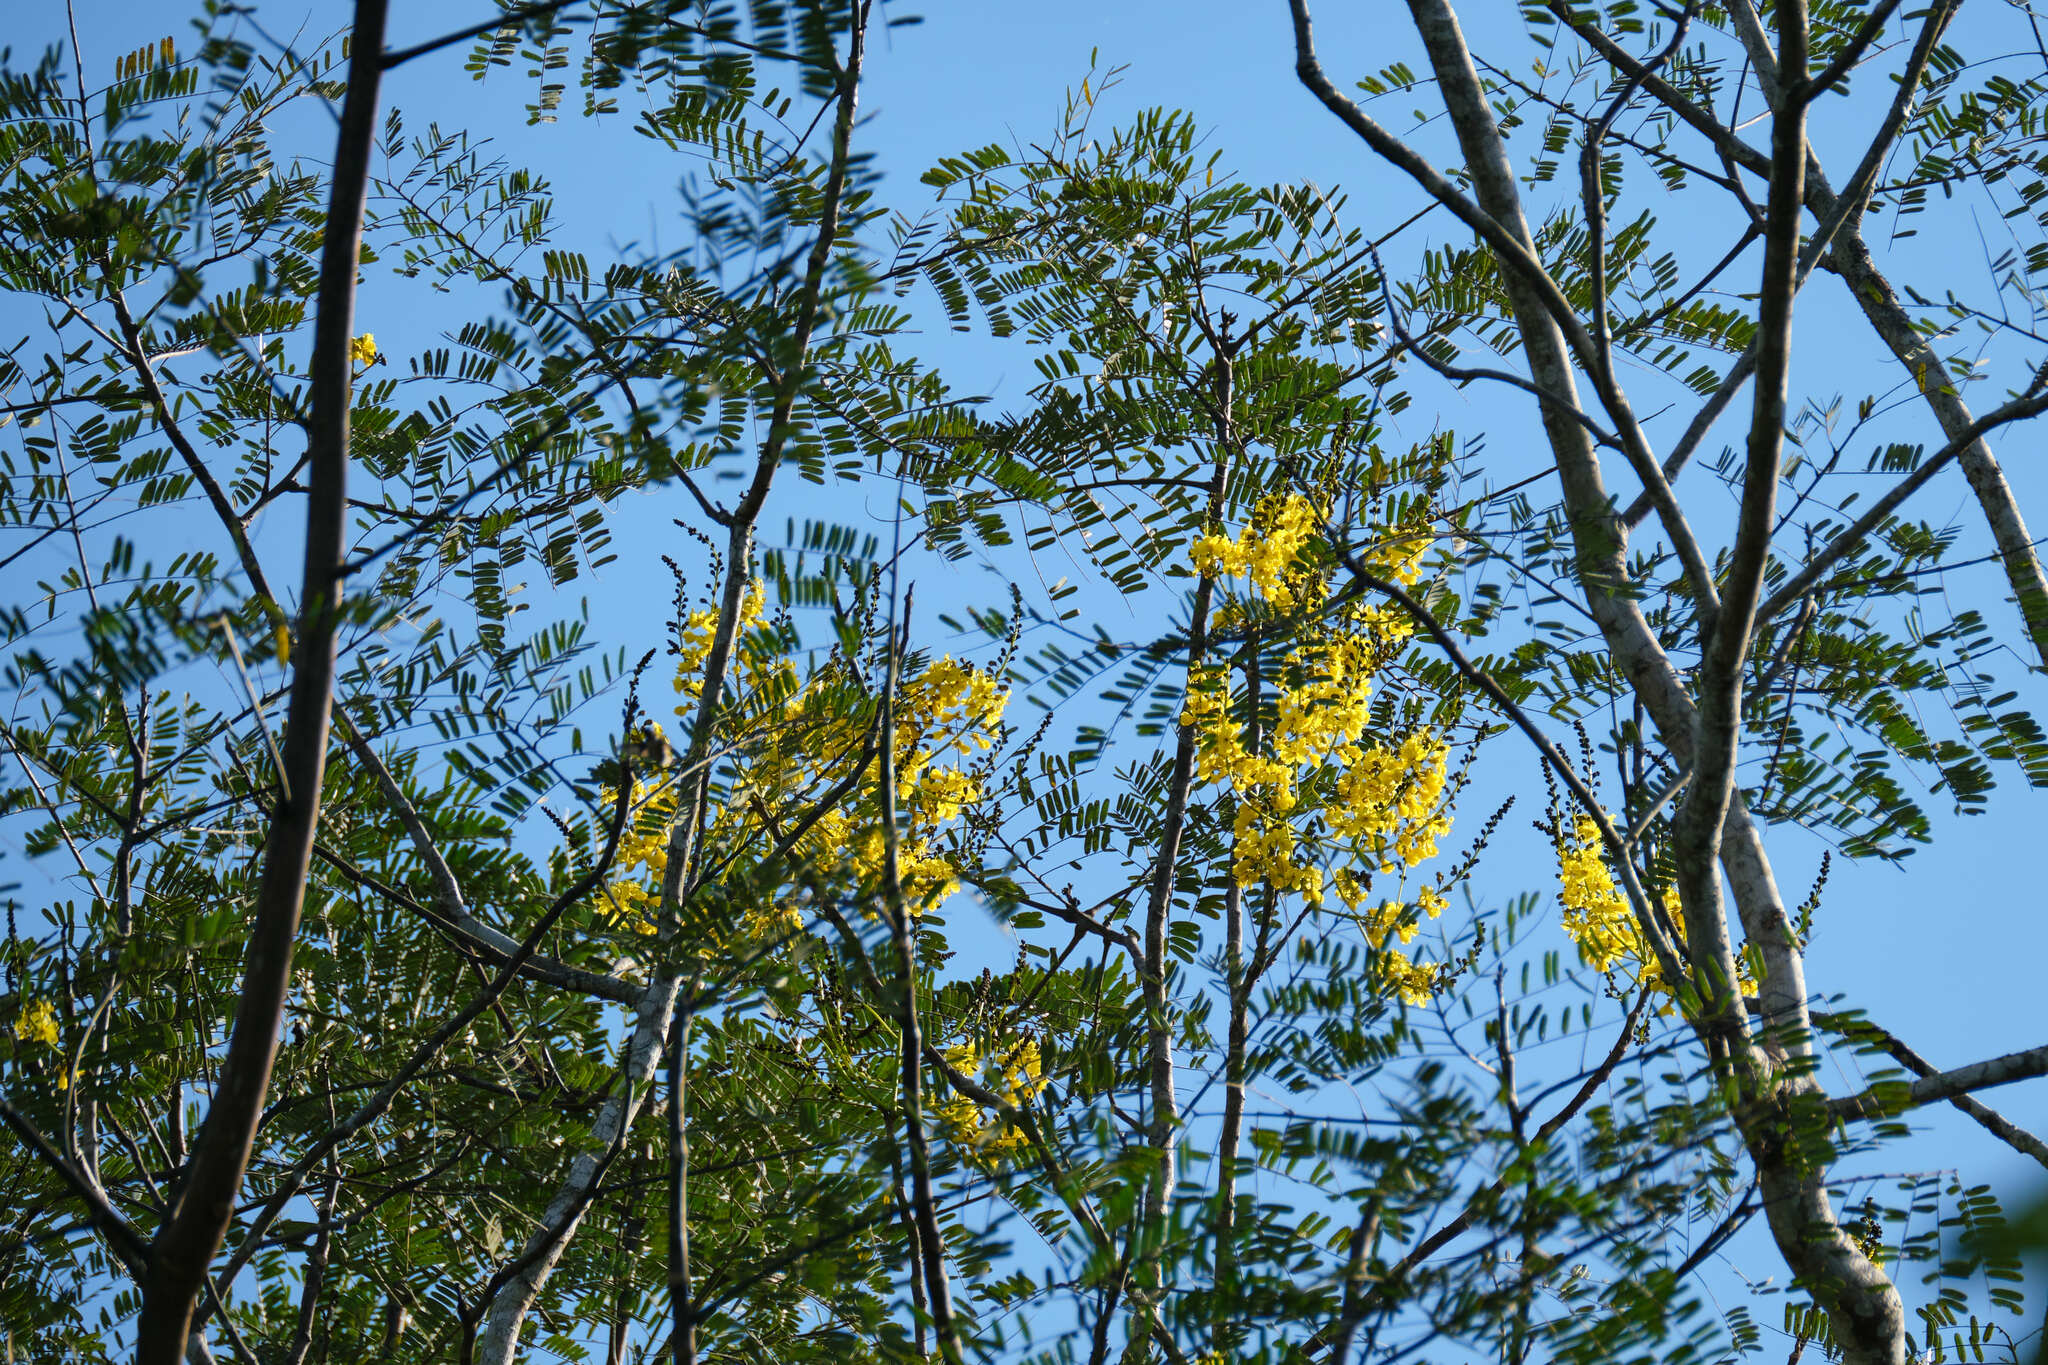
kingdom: Plantae
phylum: Tracheophyta
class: Magnoliopsida
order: Fabales
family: Fabaceae
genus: Schizolobium
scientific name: Schizolobium parahyba
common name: Brazilian firetree
